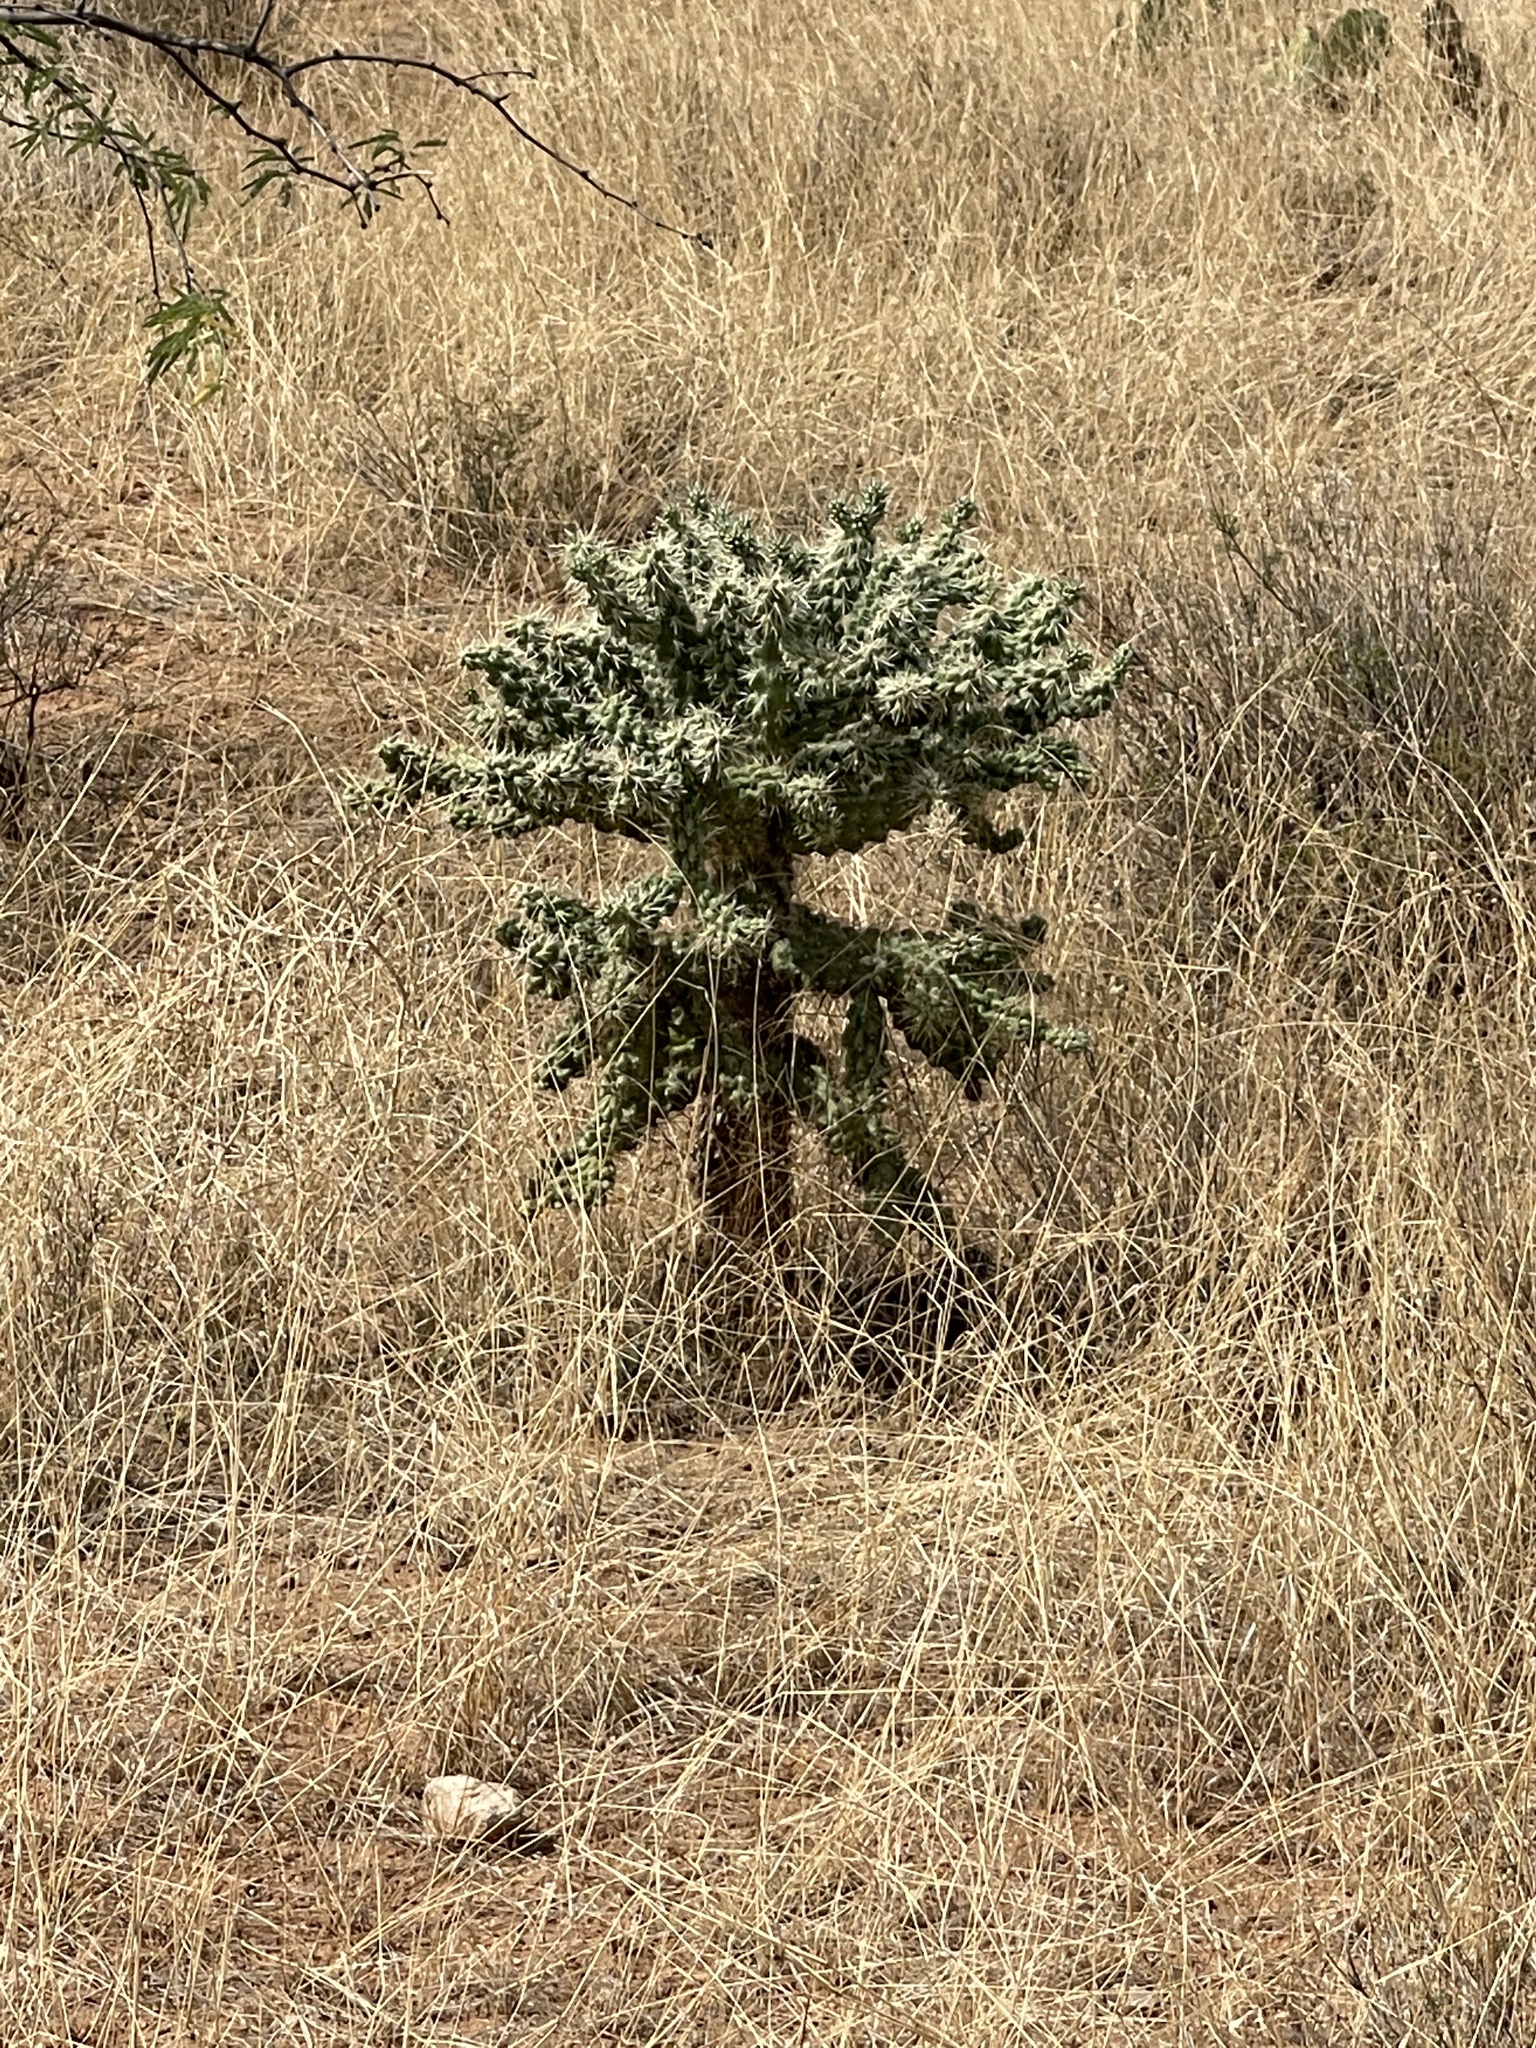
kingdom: Plantae
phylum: Tracheophyta
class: Magnoliopsida
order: Caryophyllales
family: Cactaceae
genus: Cylindropuntia
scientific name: Cylindropuntia fulgida
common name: Jumping cholla
